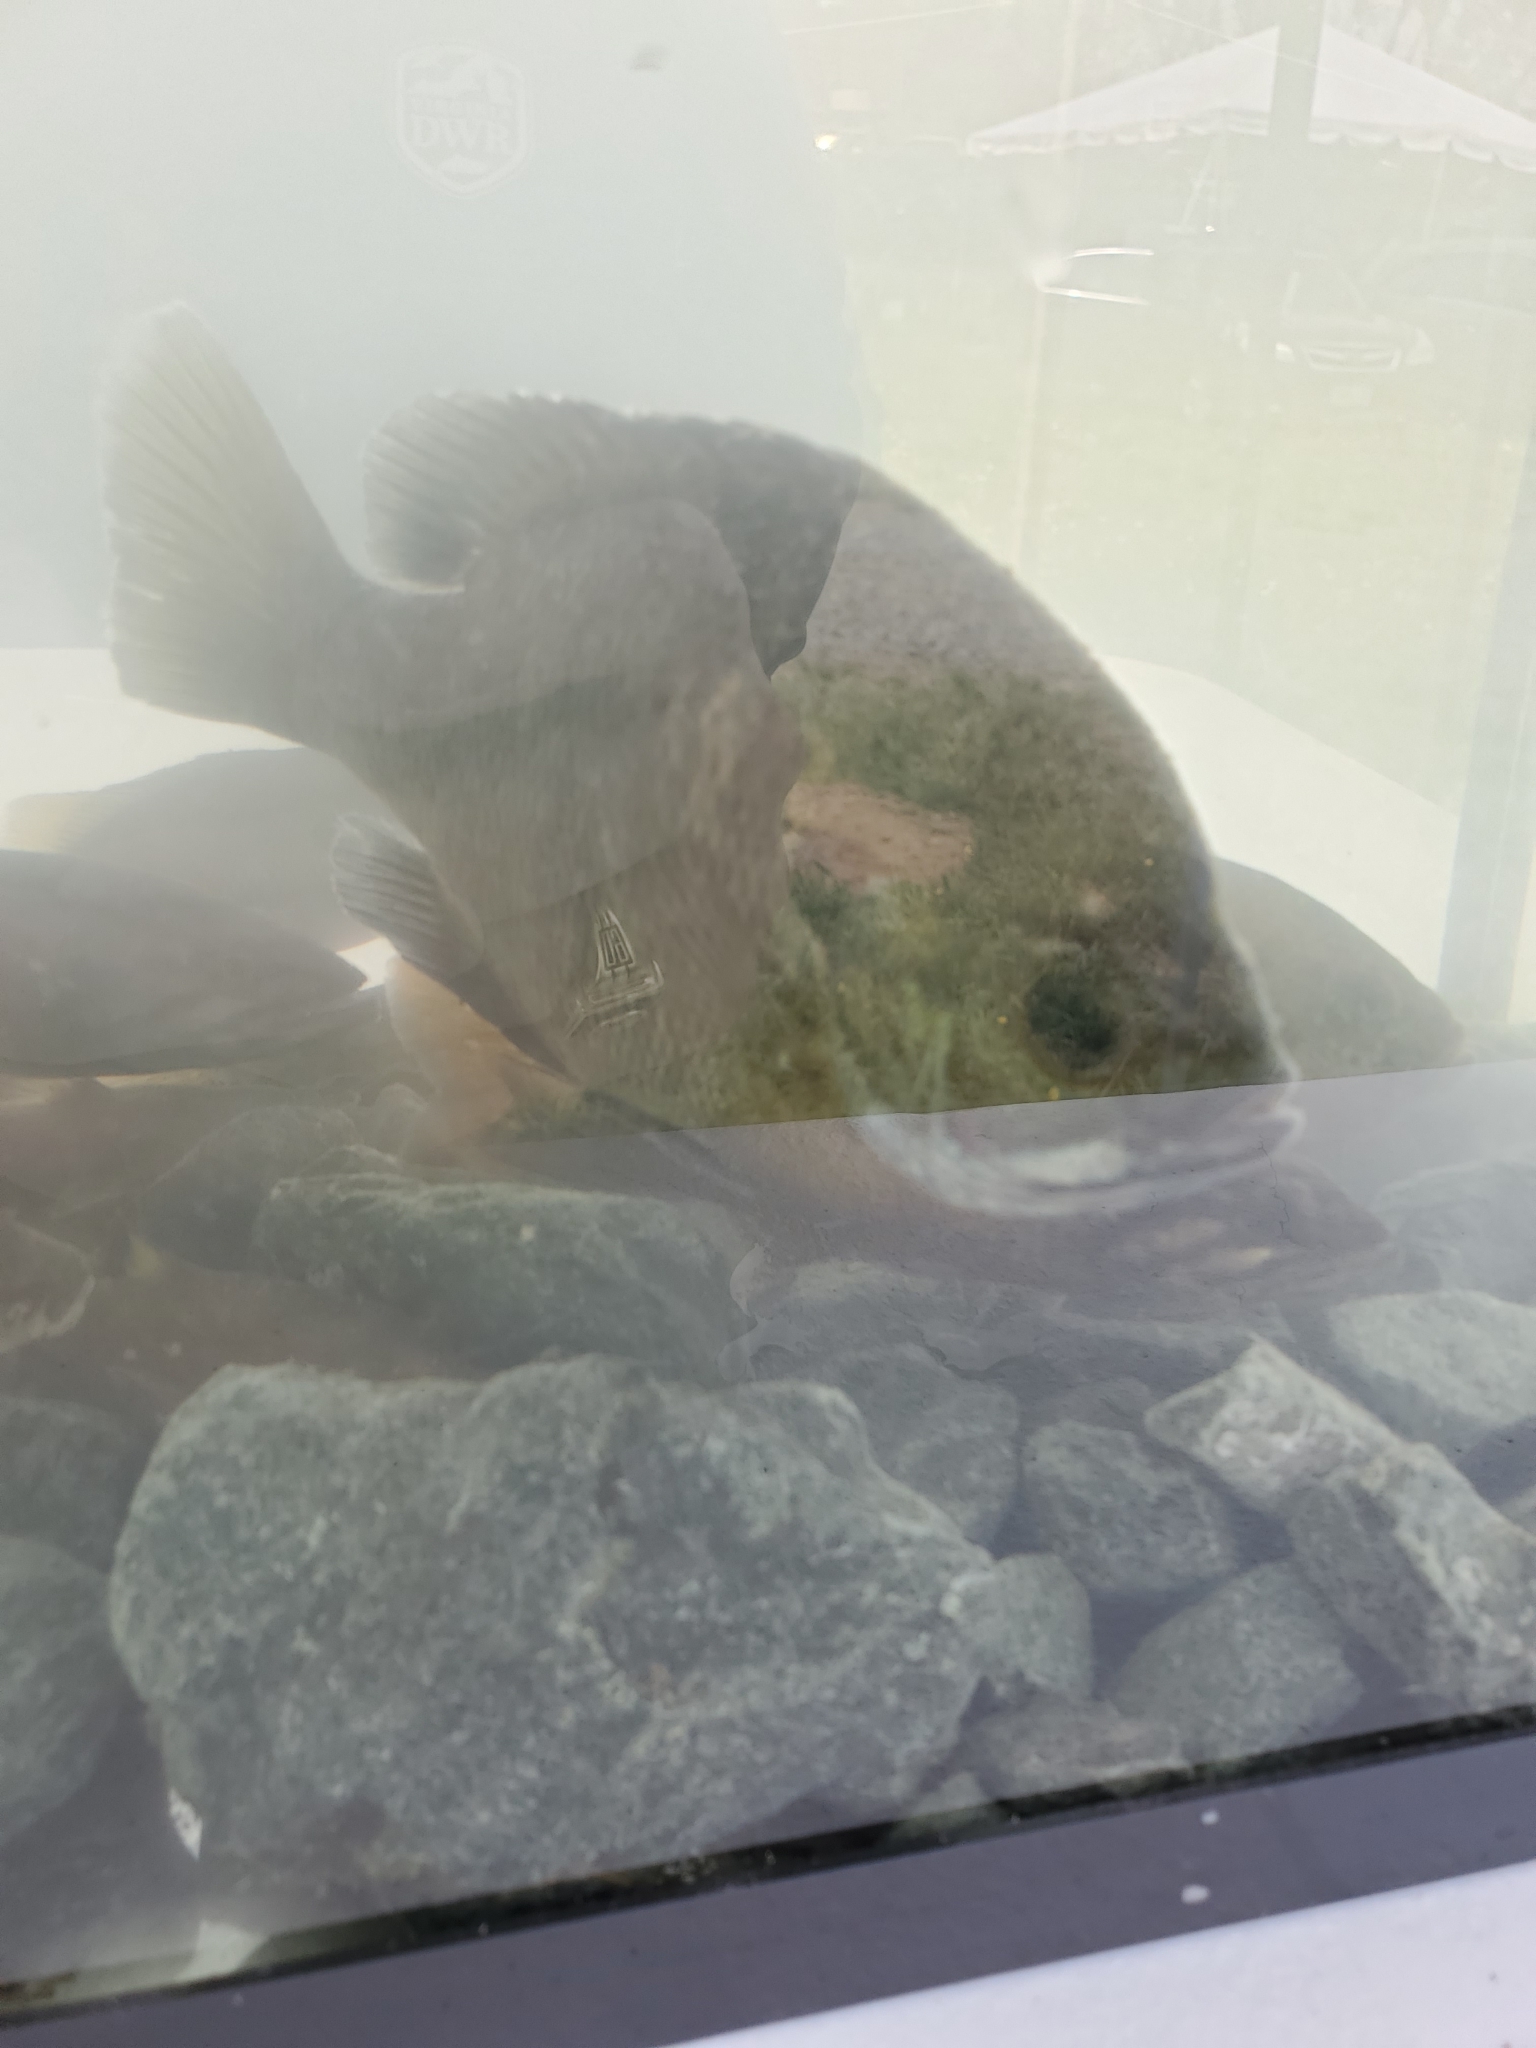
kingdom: Animalia
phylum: Chordata
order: Perciformes
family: Centrarchidae
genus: Lepomis
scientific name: Lepomis macrochirus
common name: Bluegill
